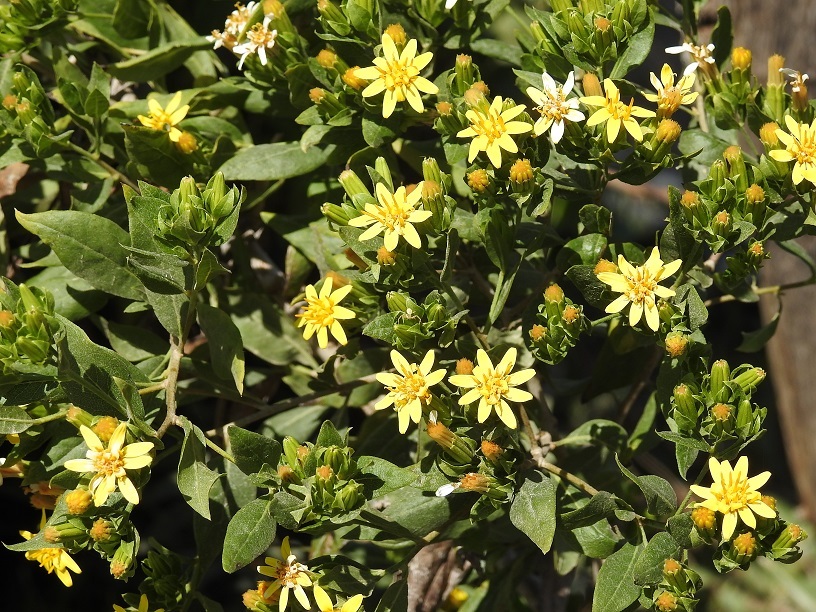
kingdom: Plantae
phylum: Tracheophyta
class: Magnoliopsida
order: Asterales
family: Asteraceae
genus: Trixis
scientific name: Trixis chiapensis
